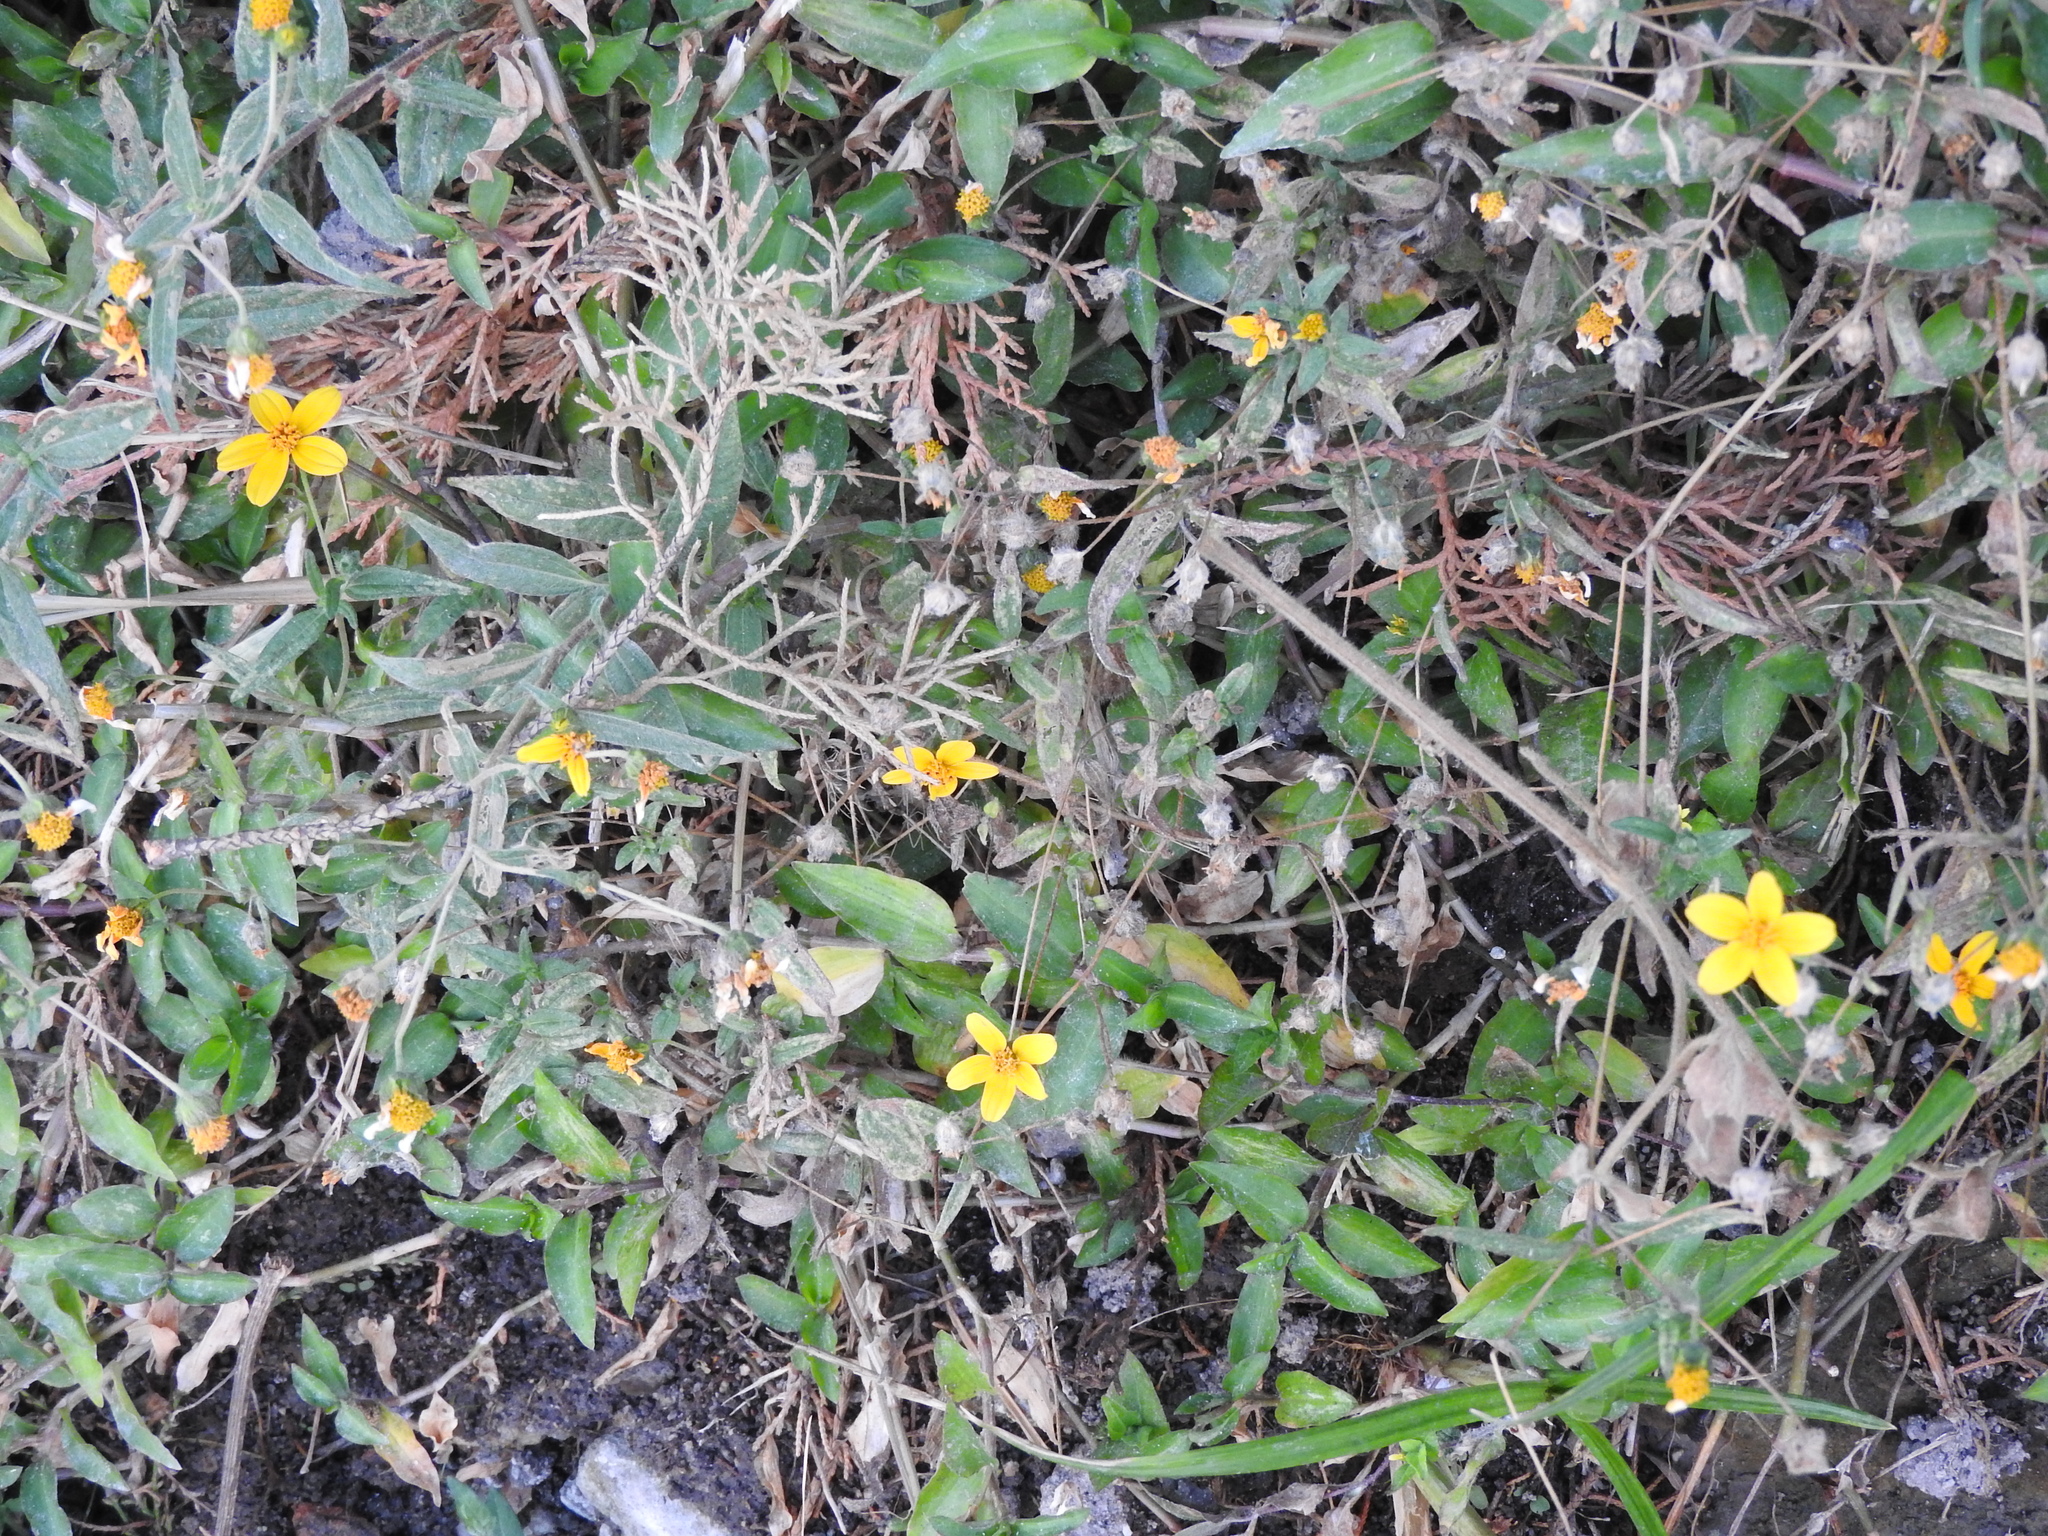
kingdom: Plantae
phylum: Tracheophyta
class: Magnoliopsida
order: Asterales
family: Asteraceae
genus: Aldama
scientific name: Aldama dentata
